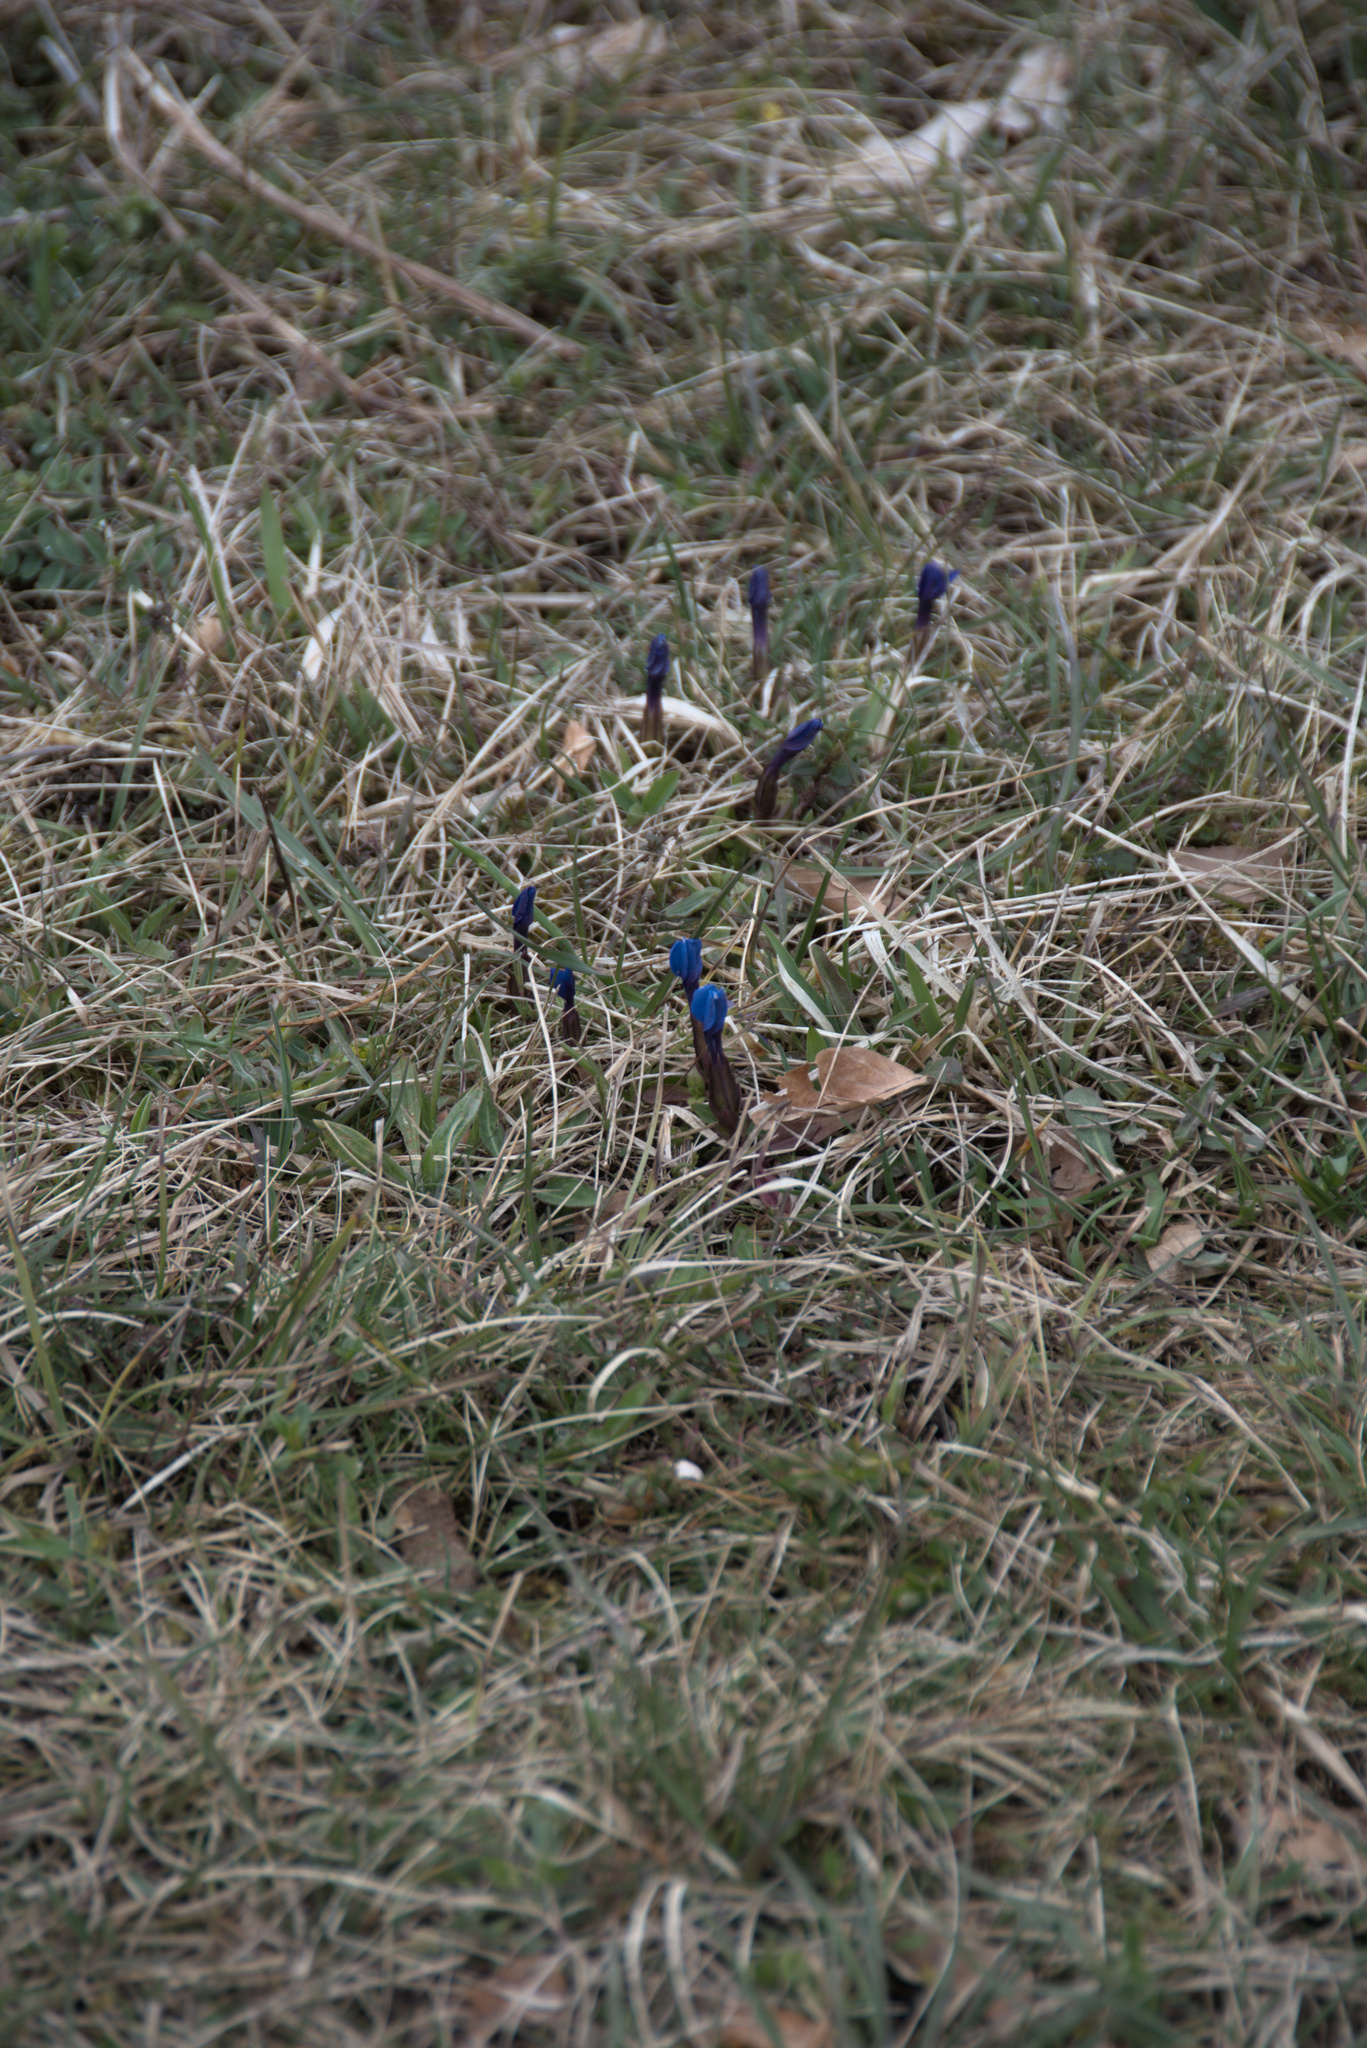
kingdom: Plantae
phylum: Tracheophyta
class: Magnoliopsida
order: Gentianales
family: Gentianaceae
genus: Gentiana
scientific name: Gentiana verna
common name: Spring gentian
